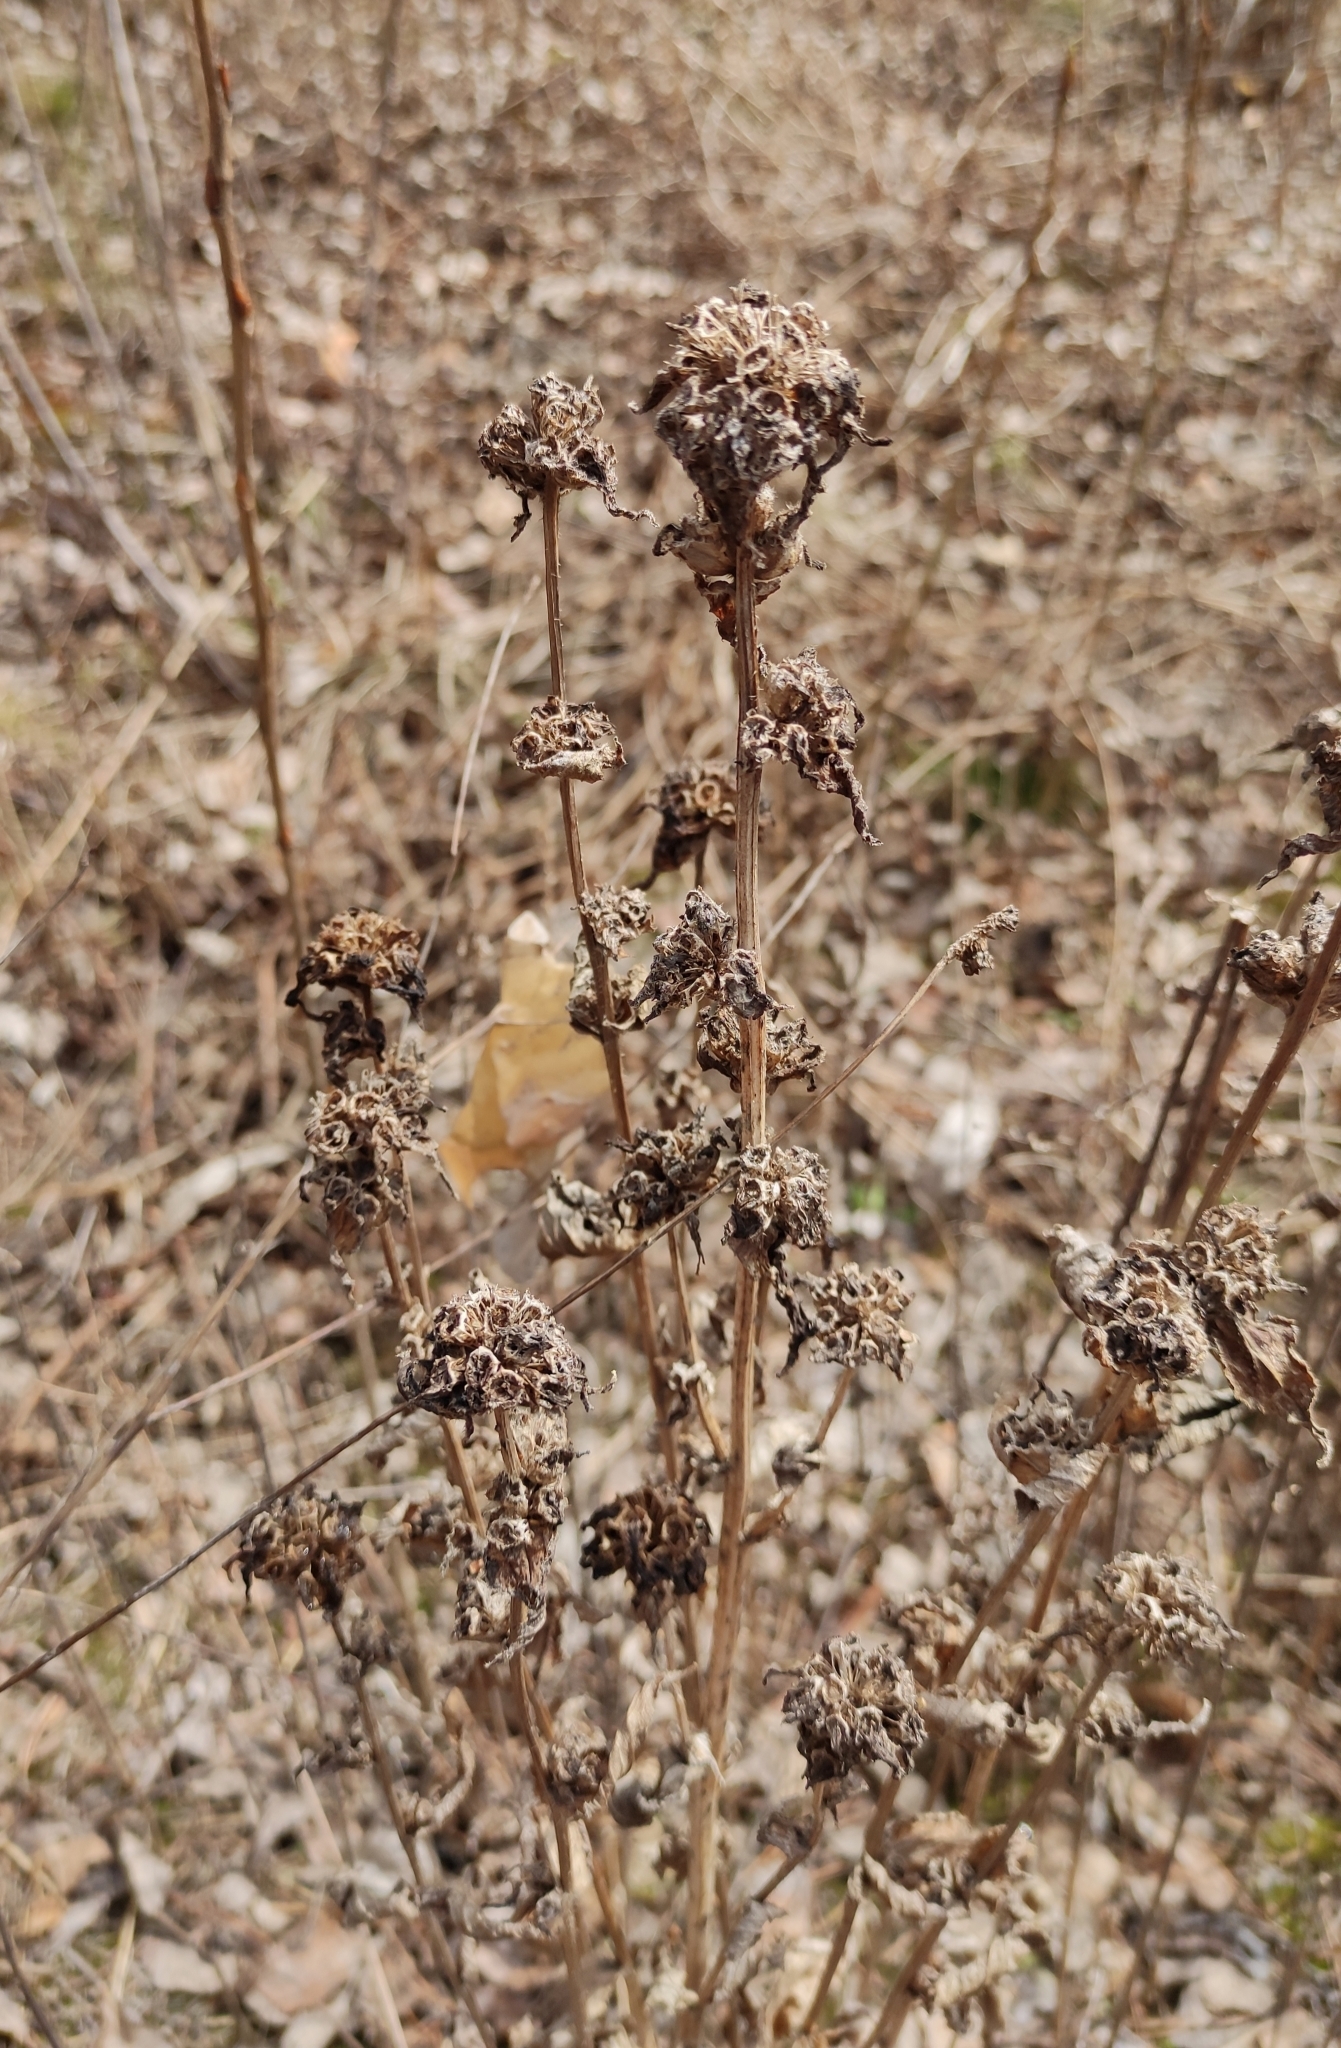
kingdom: Plantae
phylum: Tracheophyta
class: Magnoliopsida
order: Asterales
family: Campanulaceae
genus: Campanula
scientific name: Campanula glomerata
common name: Clustered bellflower
